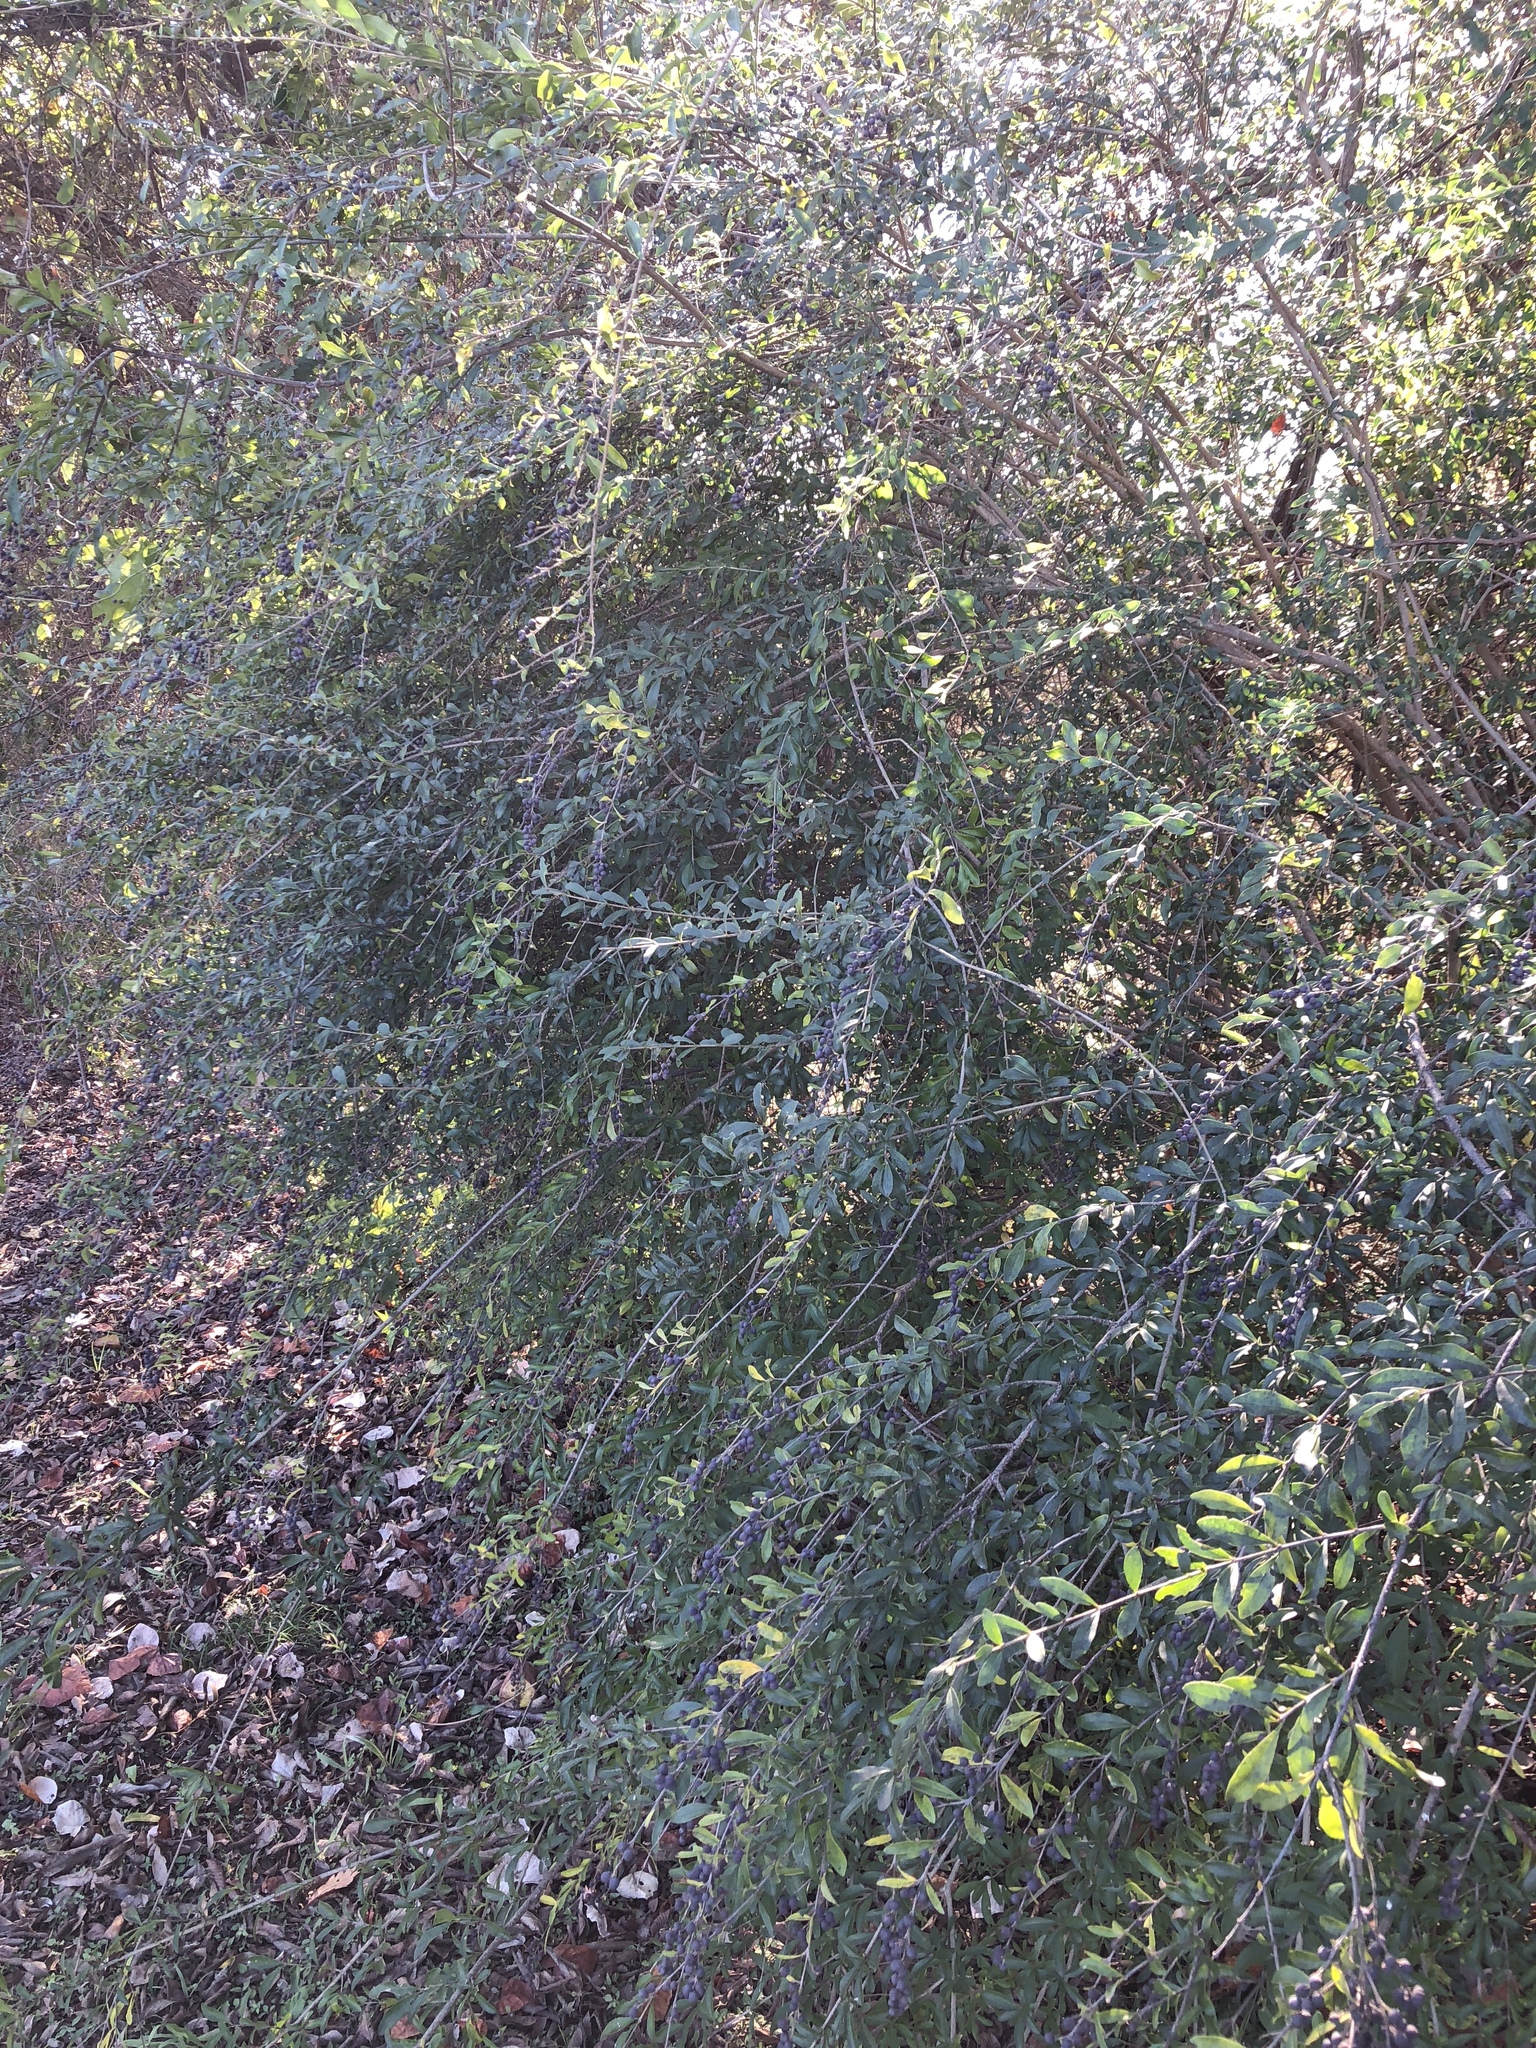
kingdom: Plantae
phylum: Tracheophyta
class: Magnoliopsida
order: Lamiales
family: Oleaceae
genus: Ligustrum
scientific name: Ligustrum quihoui
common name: Waxyleaf privet
